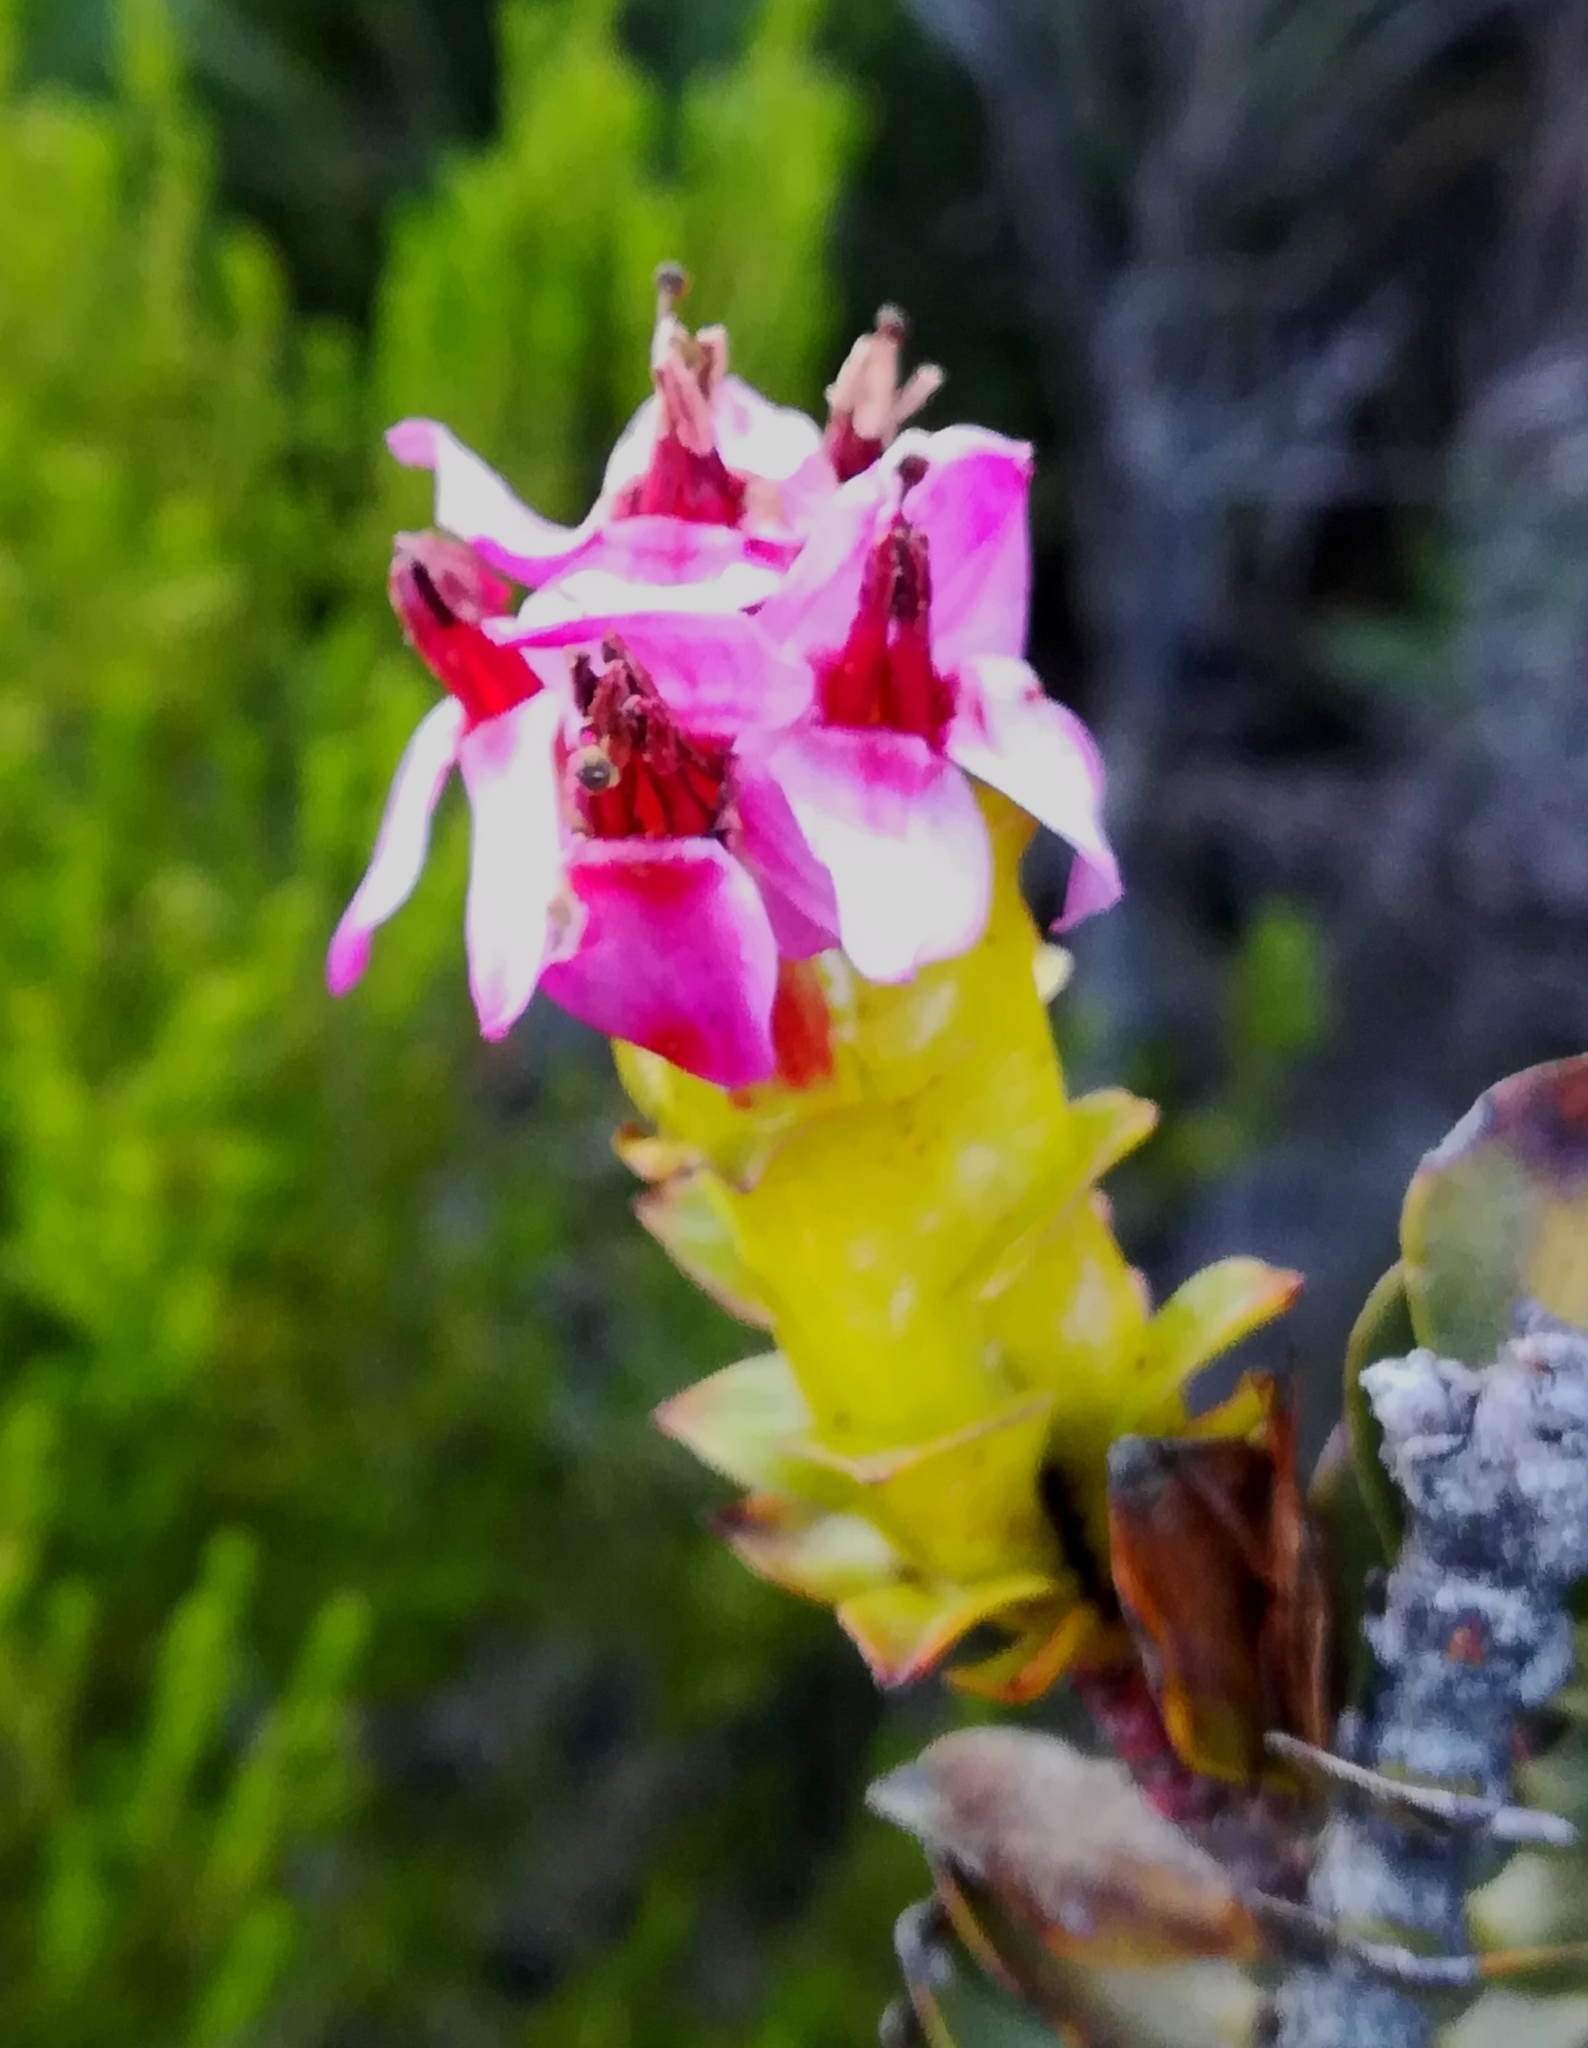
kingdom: Plantae
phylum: Tracheophyta
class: Magnoliopsida
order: Myrtales
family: Penaeaceae
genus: Saltera
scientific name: Saltera sarcocolla
